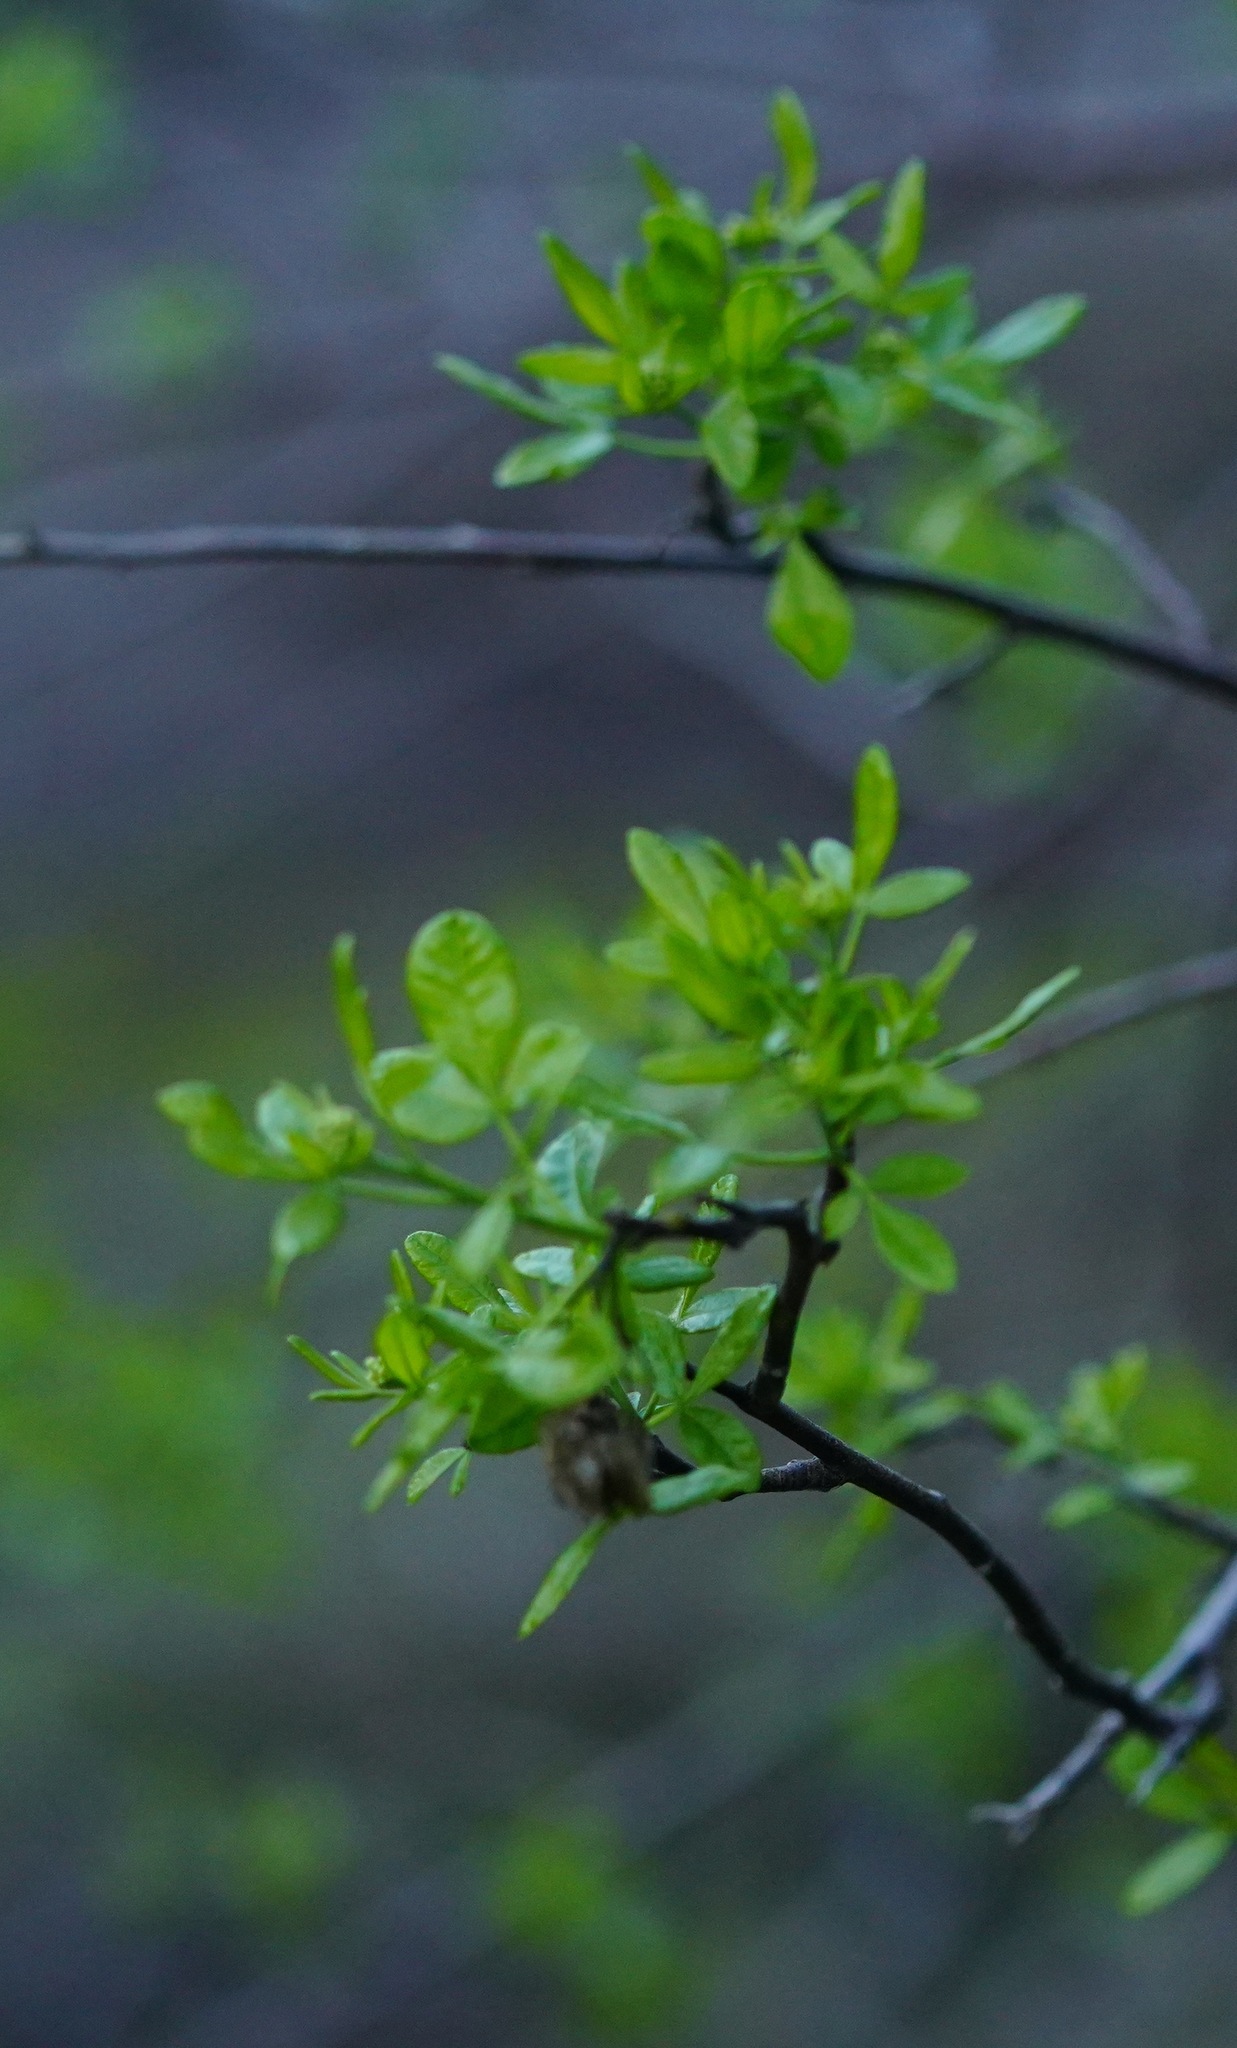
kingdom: Plantae
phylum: Tracheophyta
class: Magnoliopsida
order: Sapindales
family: Rutaceae
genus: Ptelea
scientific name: Ptelea crenulata
